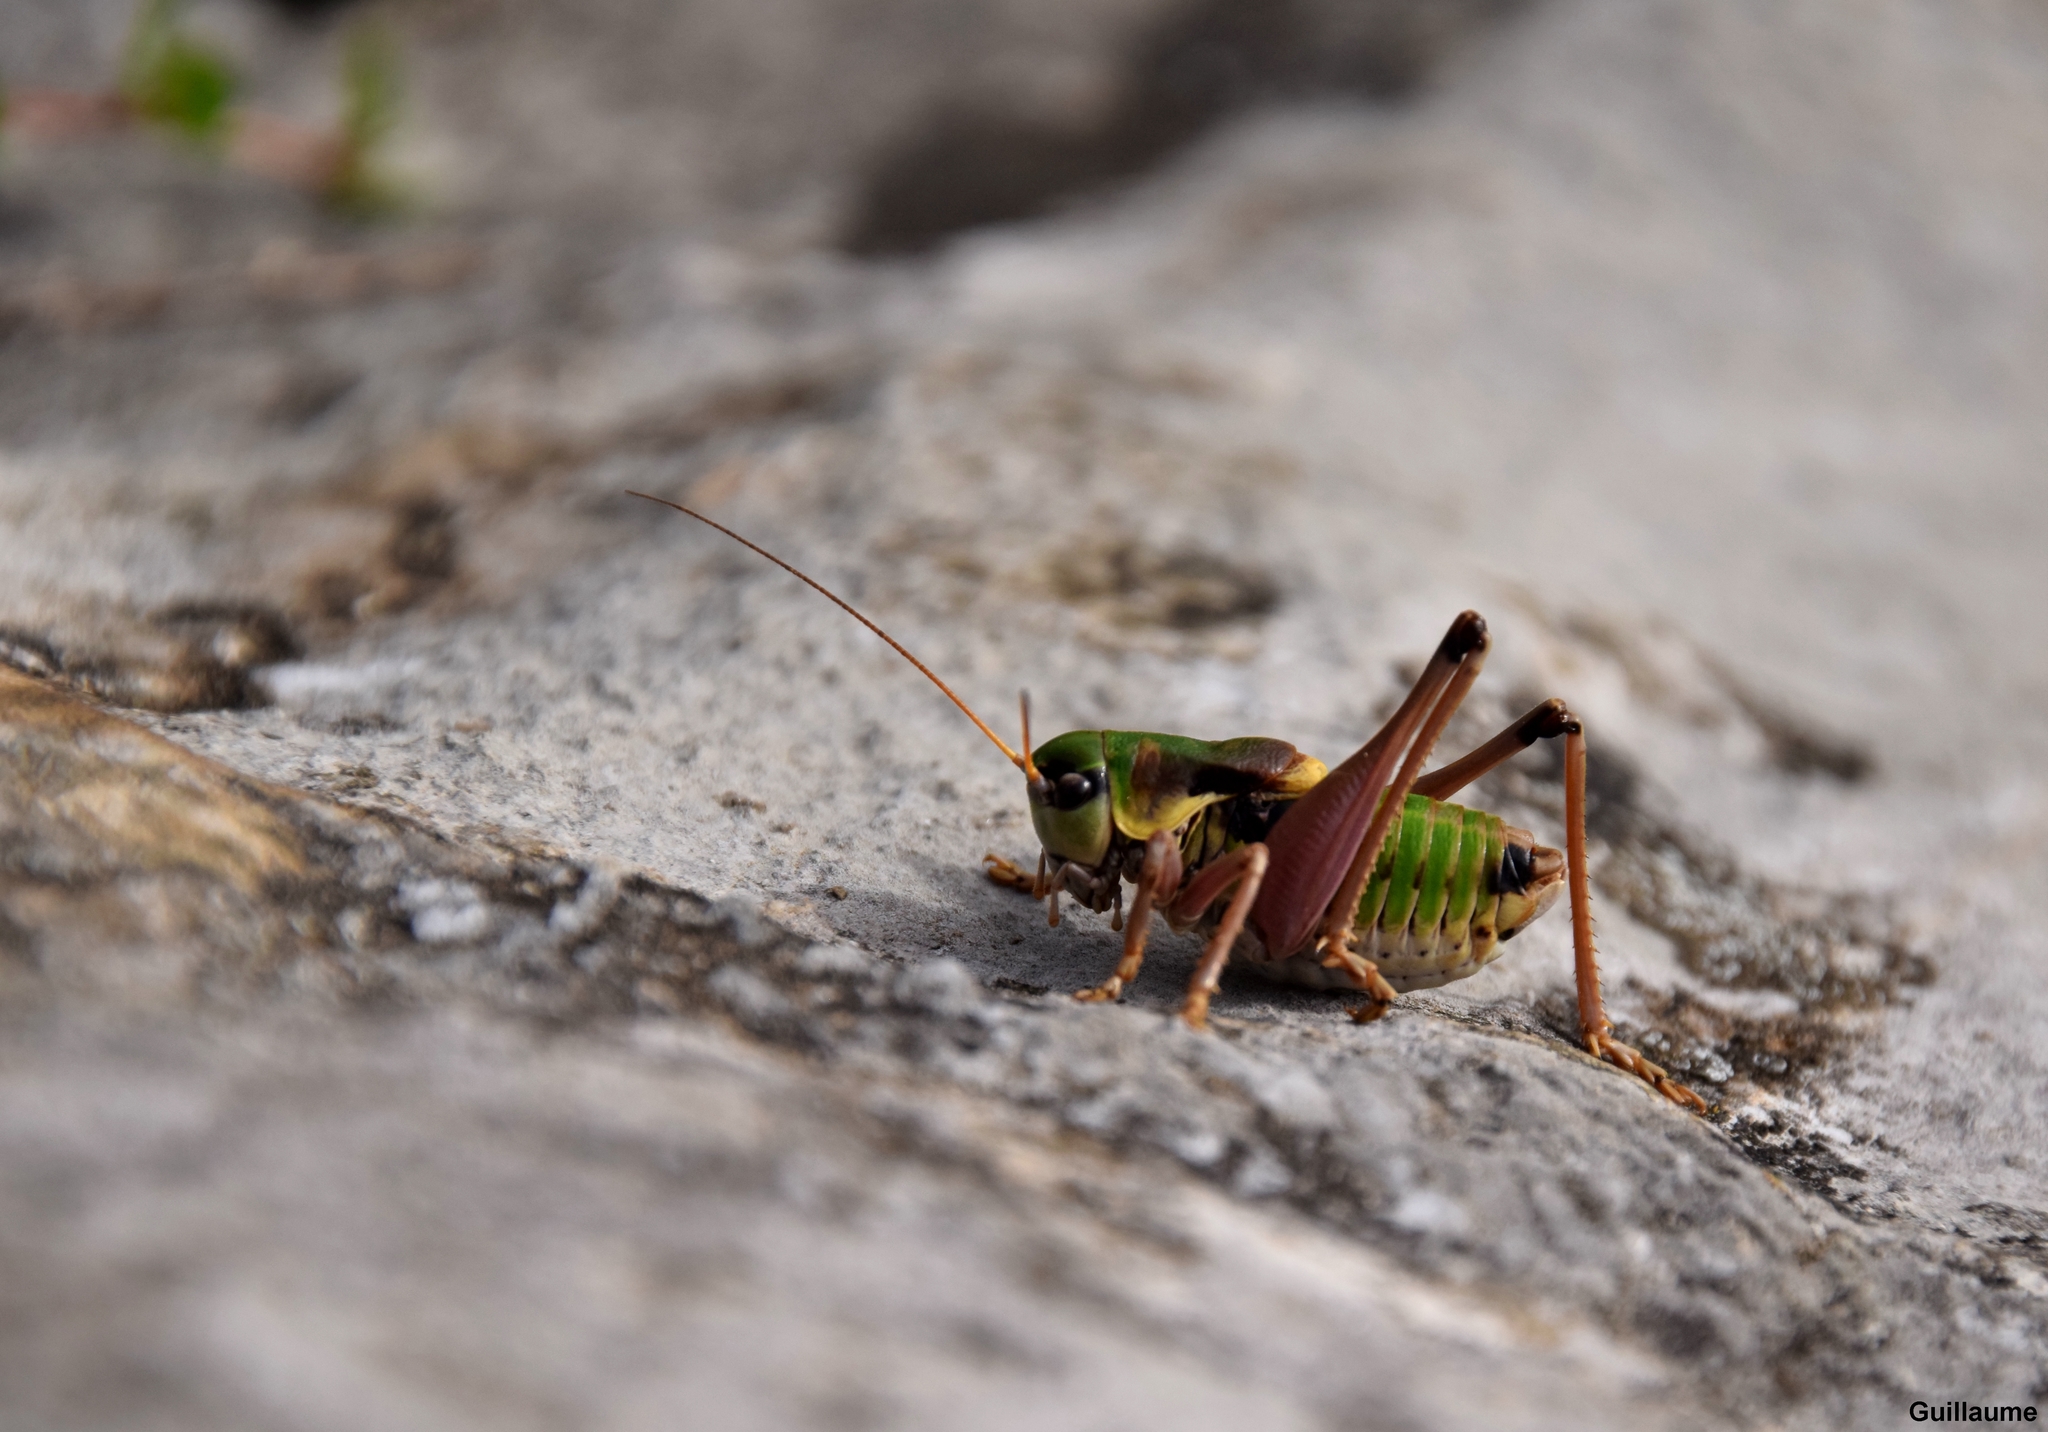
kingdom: Animalia
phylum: Arthropoda
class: Insecta
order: Orthoptera
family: Tettigoniidae
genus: Anonconotus
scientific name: Anonconotus alpinus
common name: Small alpine bush-cricket
